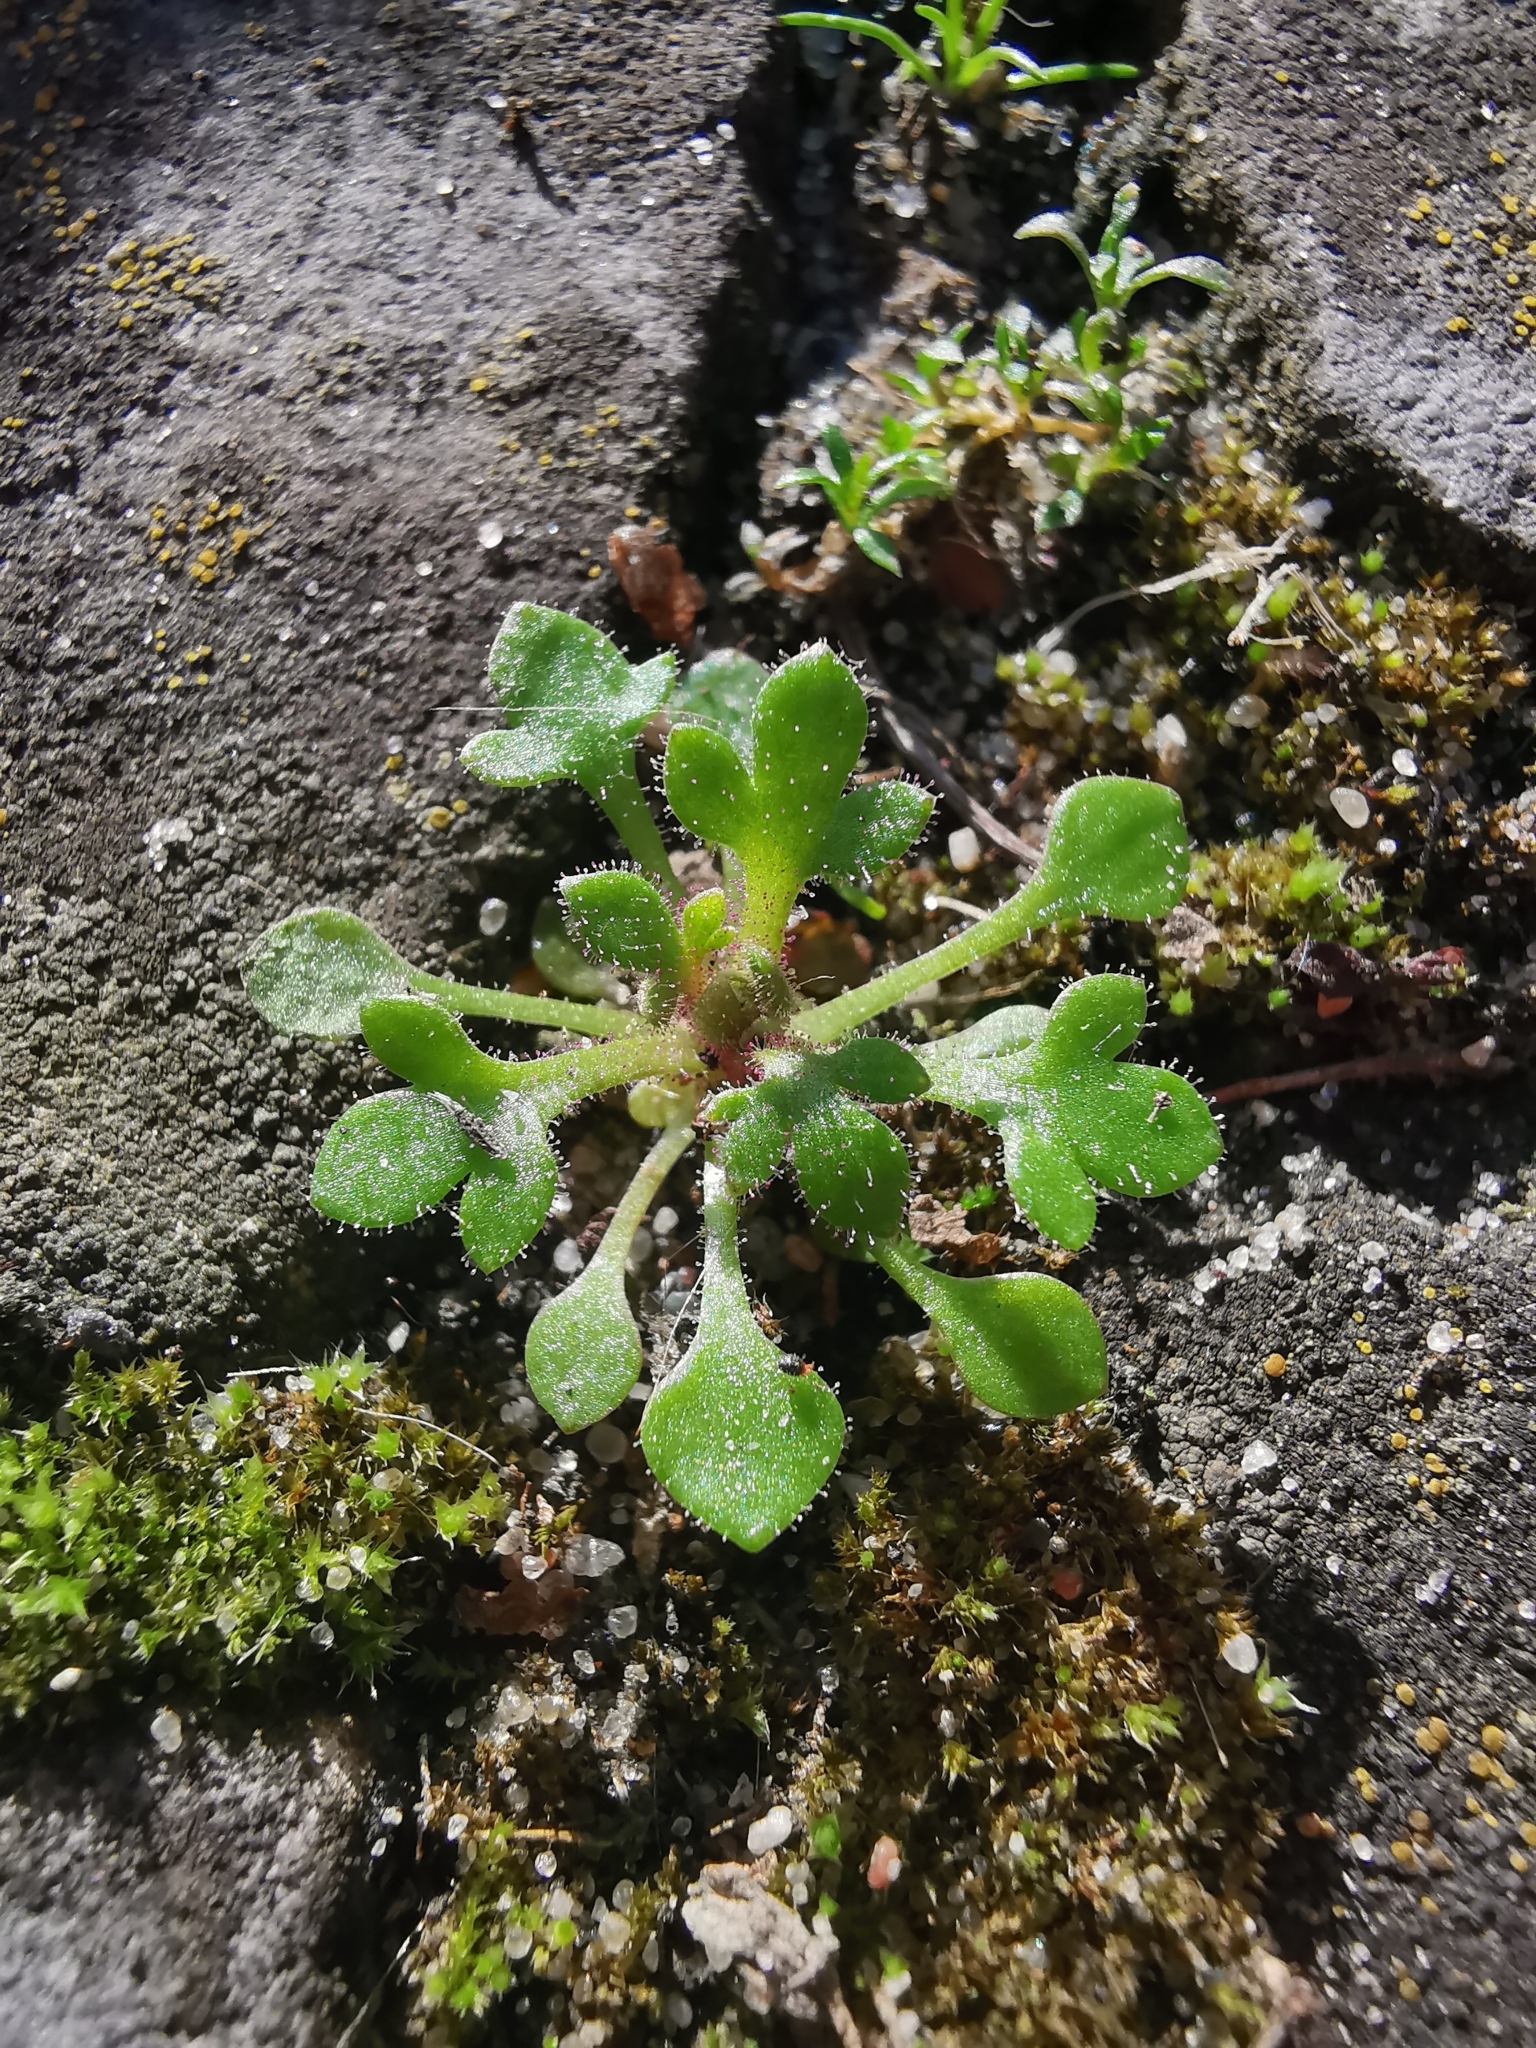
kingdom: Plantae
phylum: Tracheophyta
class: Magnoliopsida
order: Saxifragales
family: Saxifragaceae
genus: Saxifraga
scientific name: Saxifraga tridactylites
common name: Rue-leaved saxifrage
